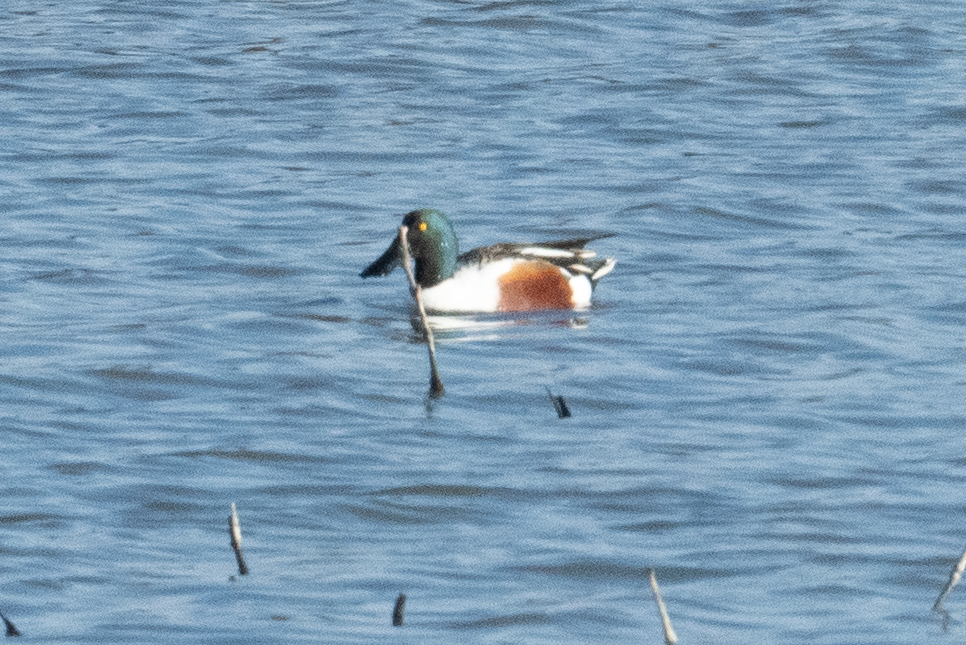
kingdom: Animalia
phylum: Chordata
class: Aves
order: Anseriformes
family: Anatidae
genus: Spatula
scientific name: Spatula clypeata
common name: Northern shoveler
